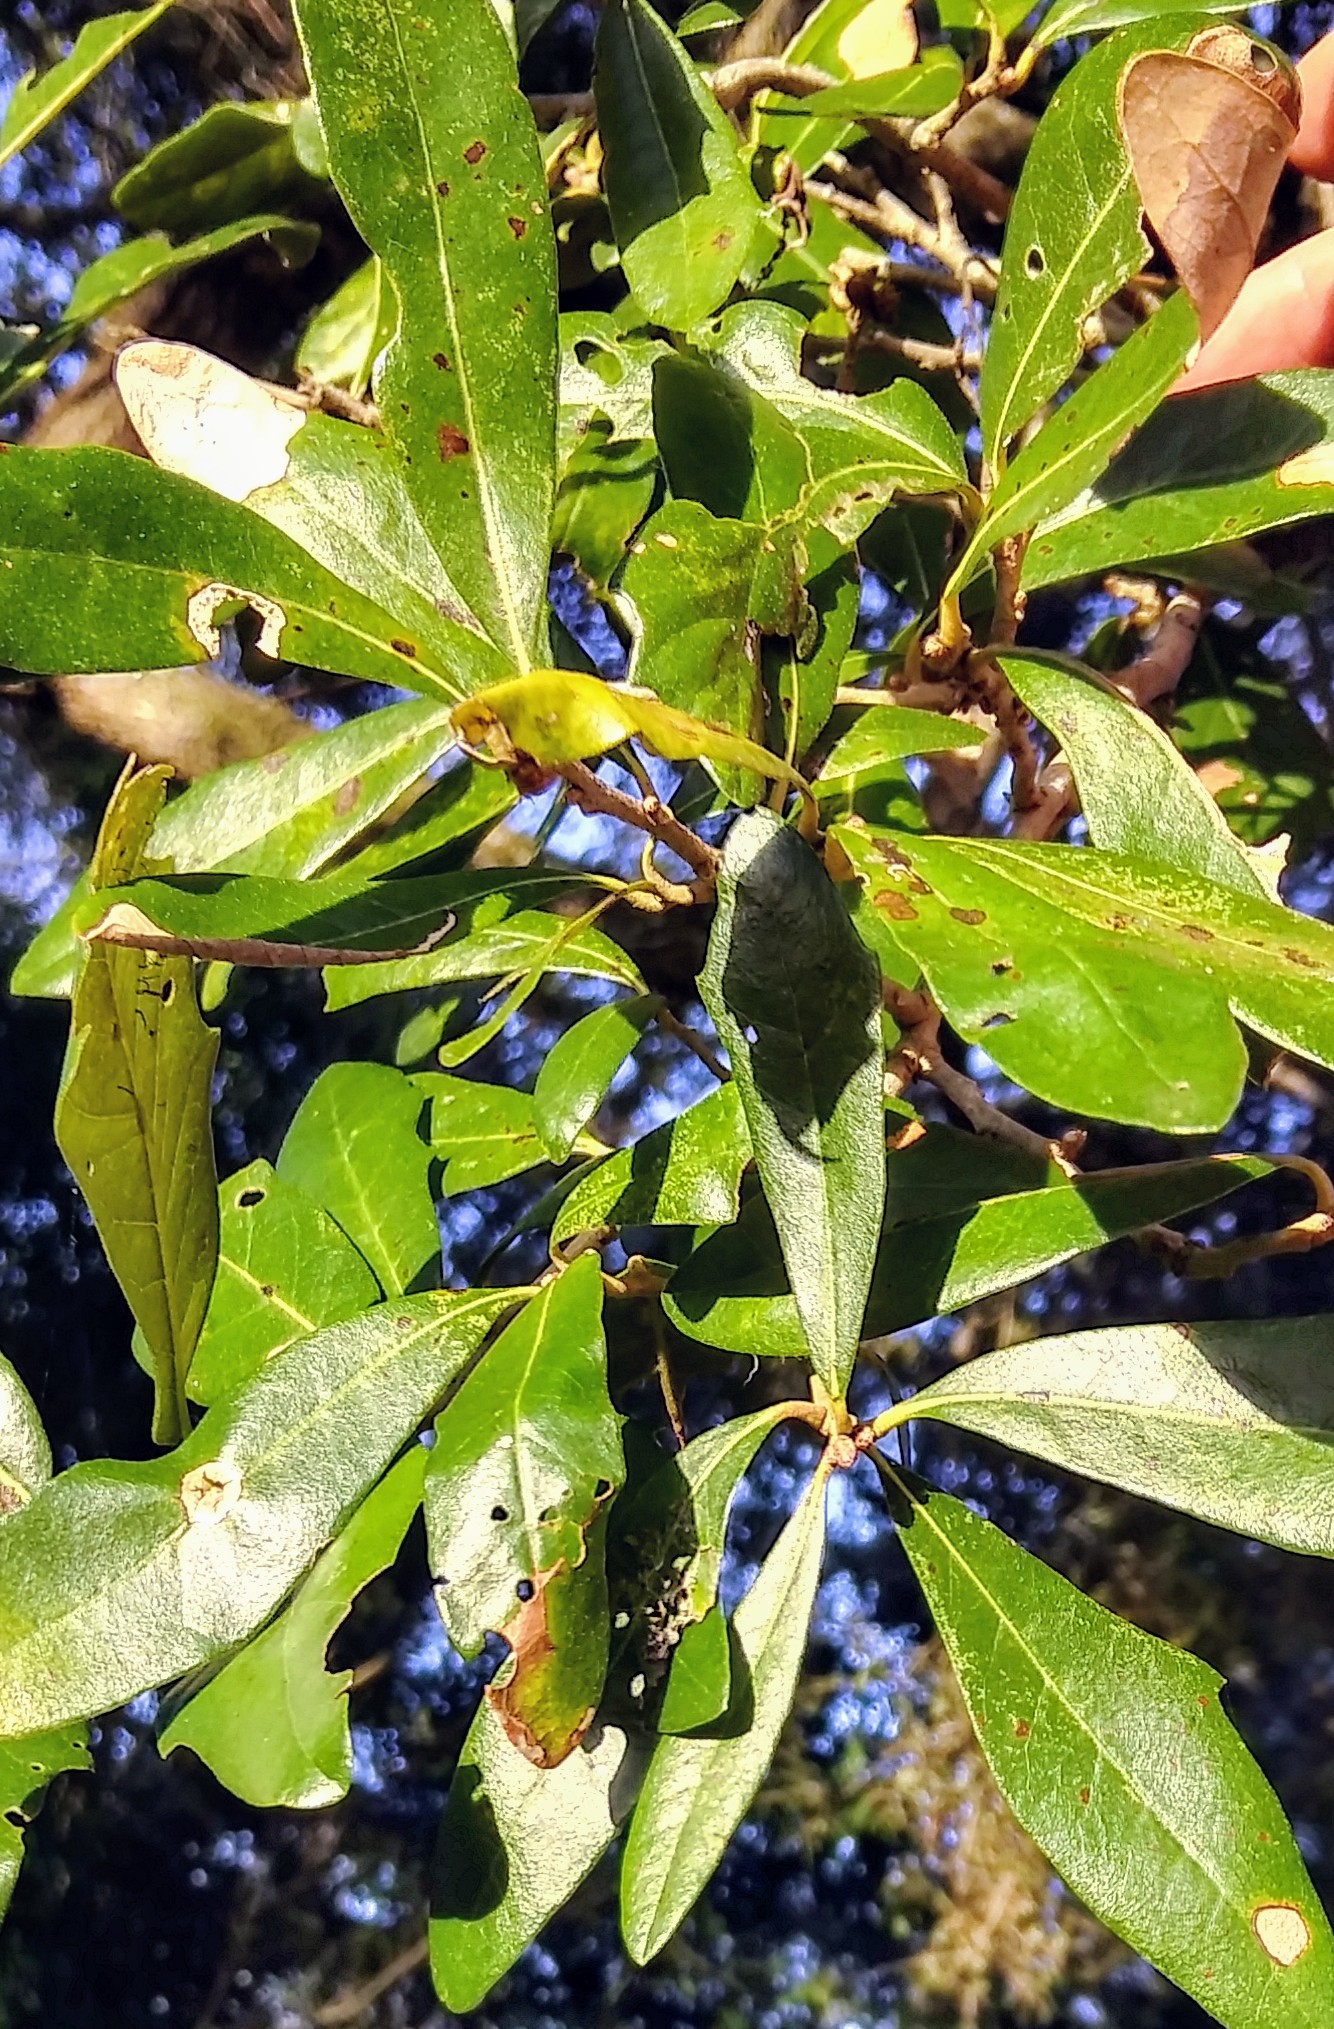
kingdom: Plantae
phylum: Tracheophyta
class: Magnoliopsida
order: Fagales
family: Fagaceae
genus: Quercus
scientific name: Quercus virginiana
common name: Southern live oak
